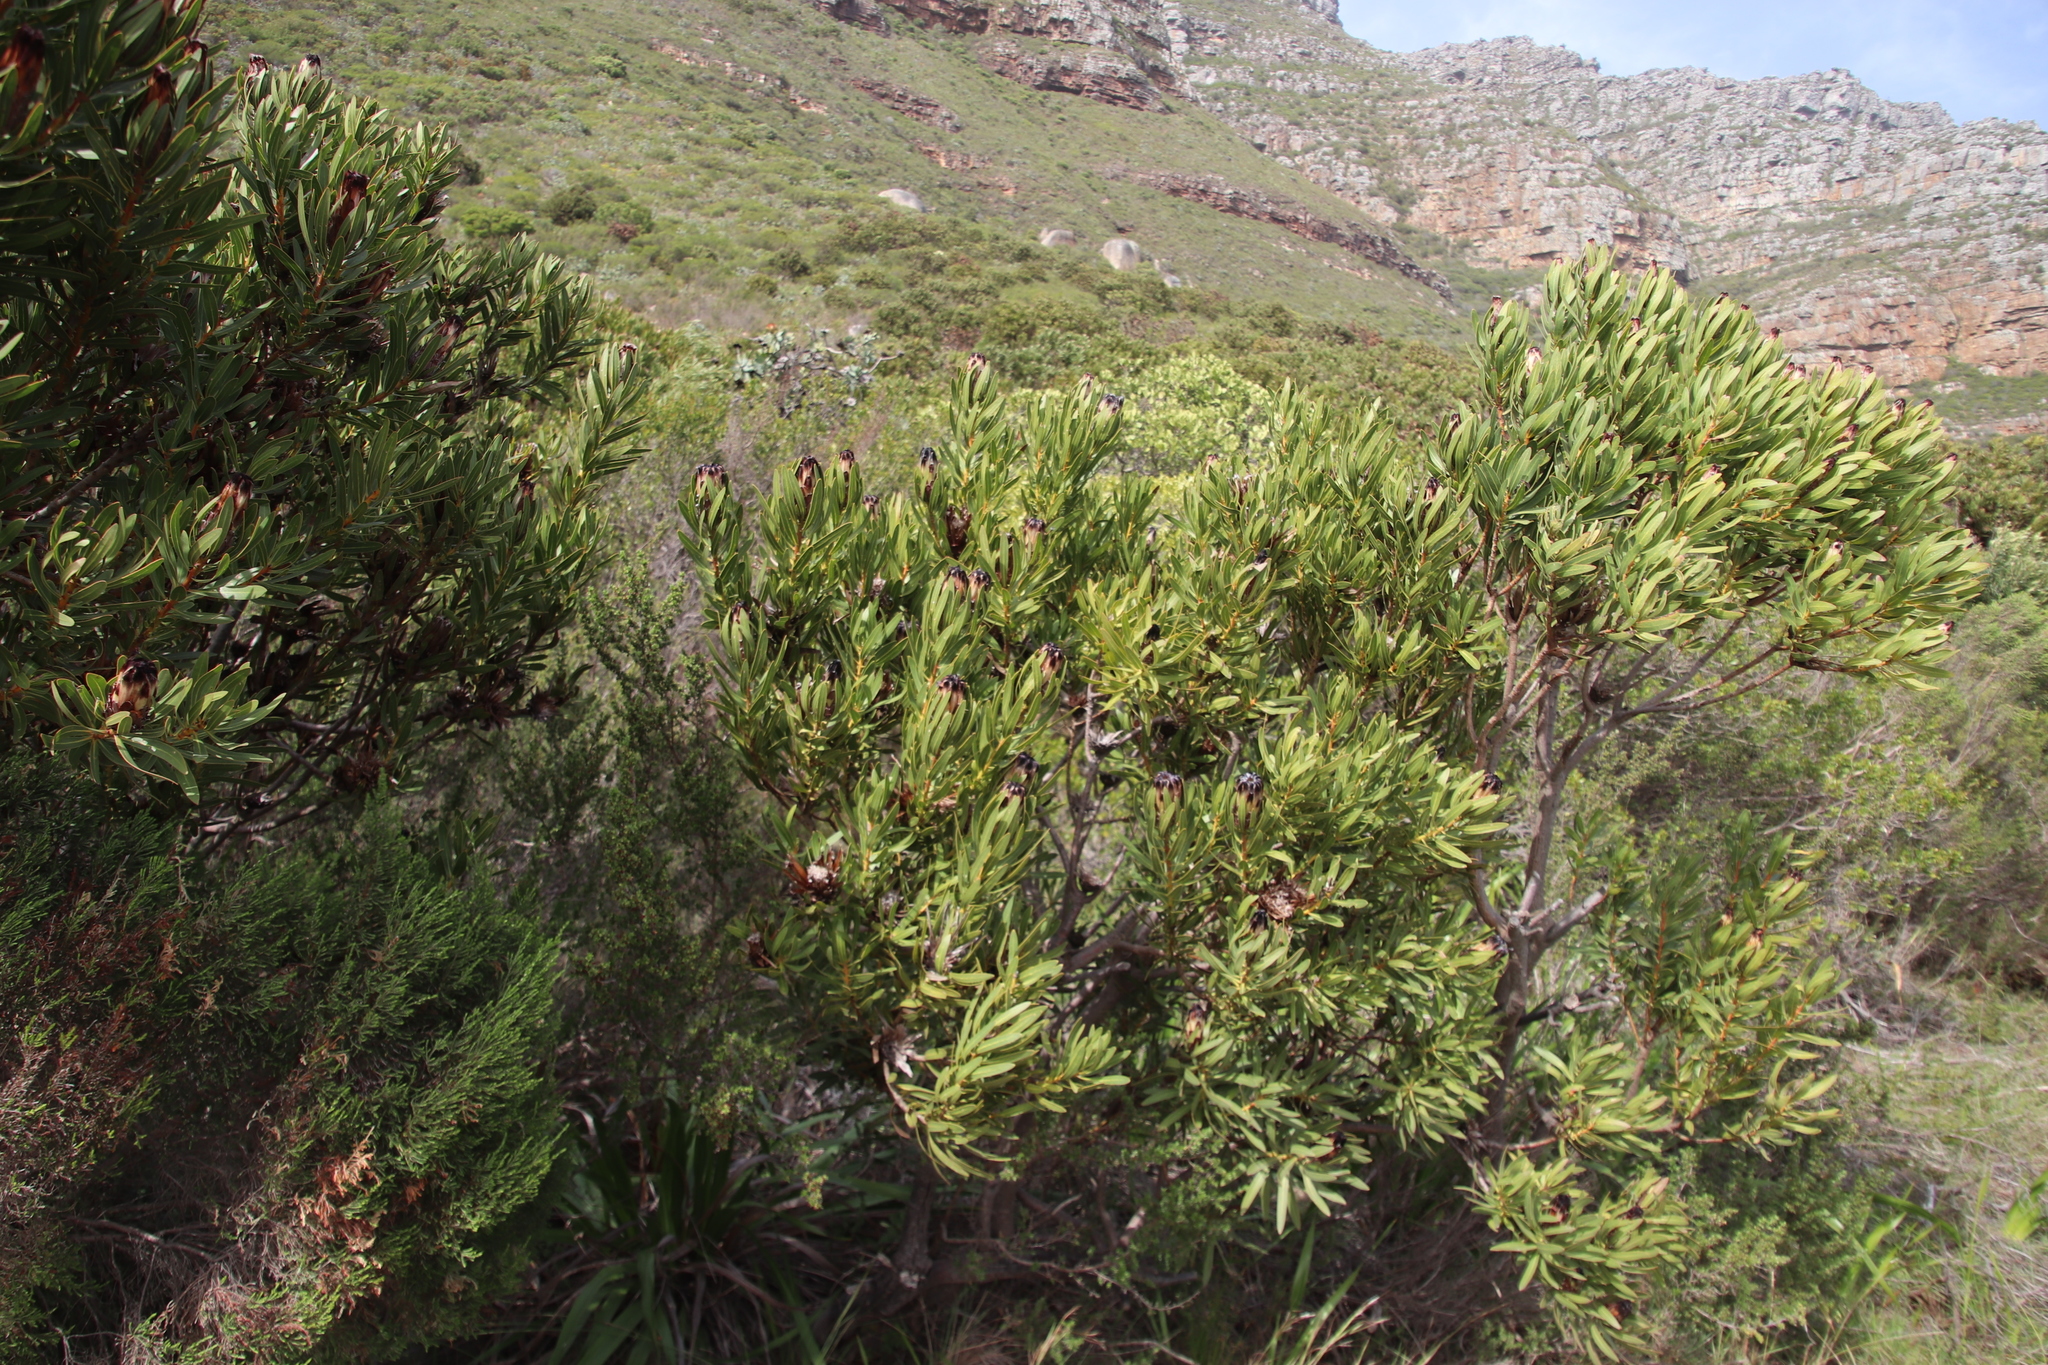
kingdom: Plantae
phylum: Tracheophyta
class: Magnoliopsida
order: Proteales
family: Proteaceae
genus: Protea
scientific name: Protea lepidocarpodendron
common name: Black-bearded protea
